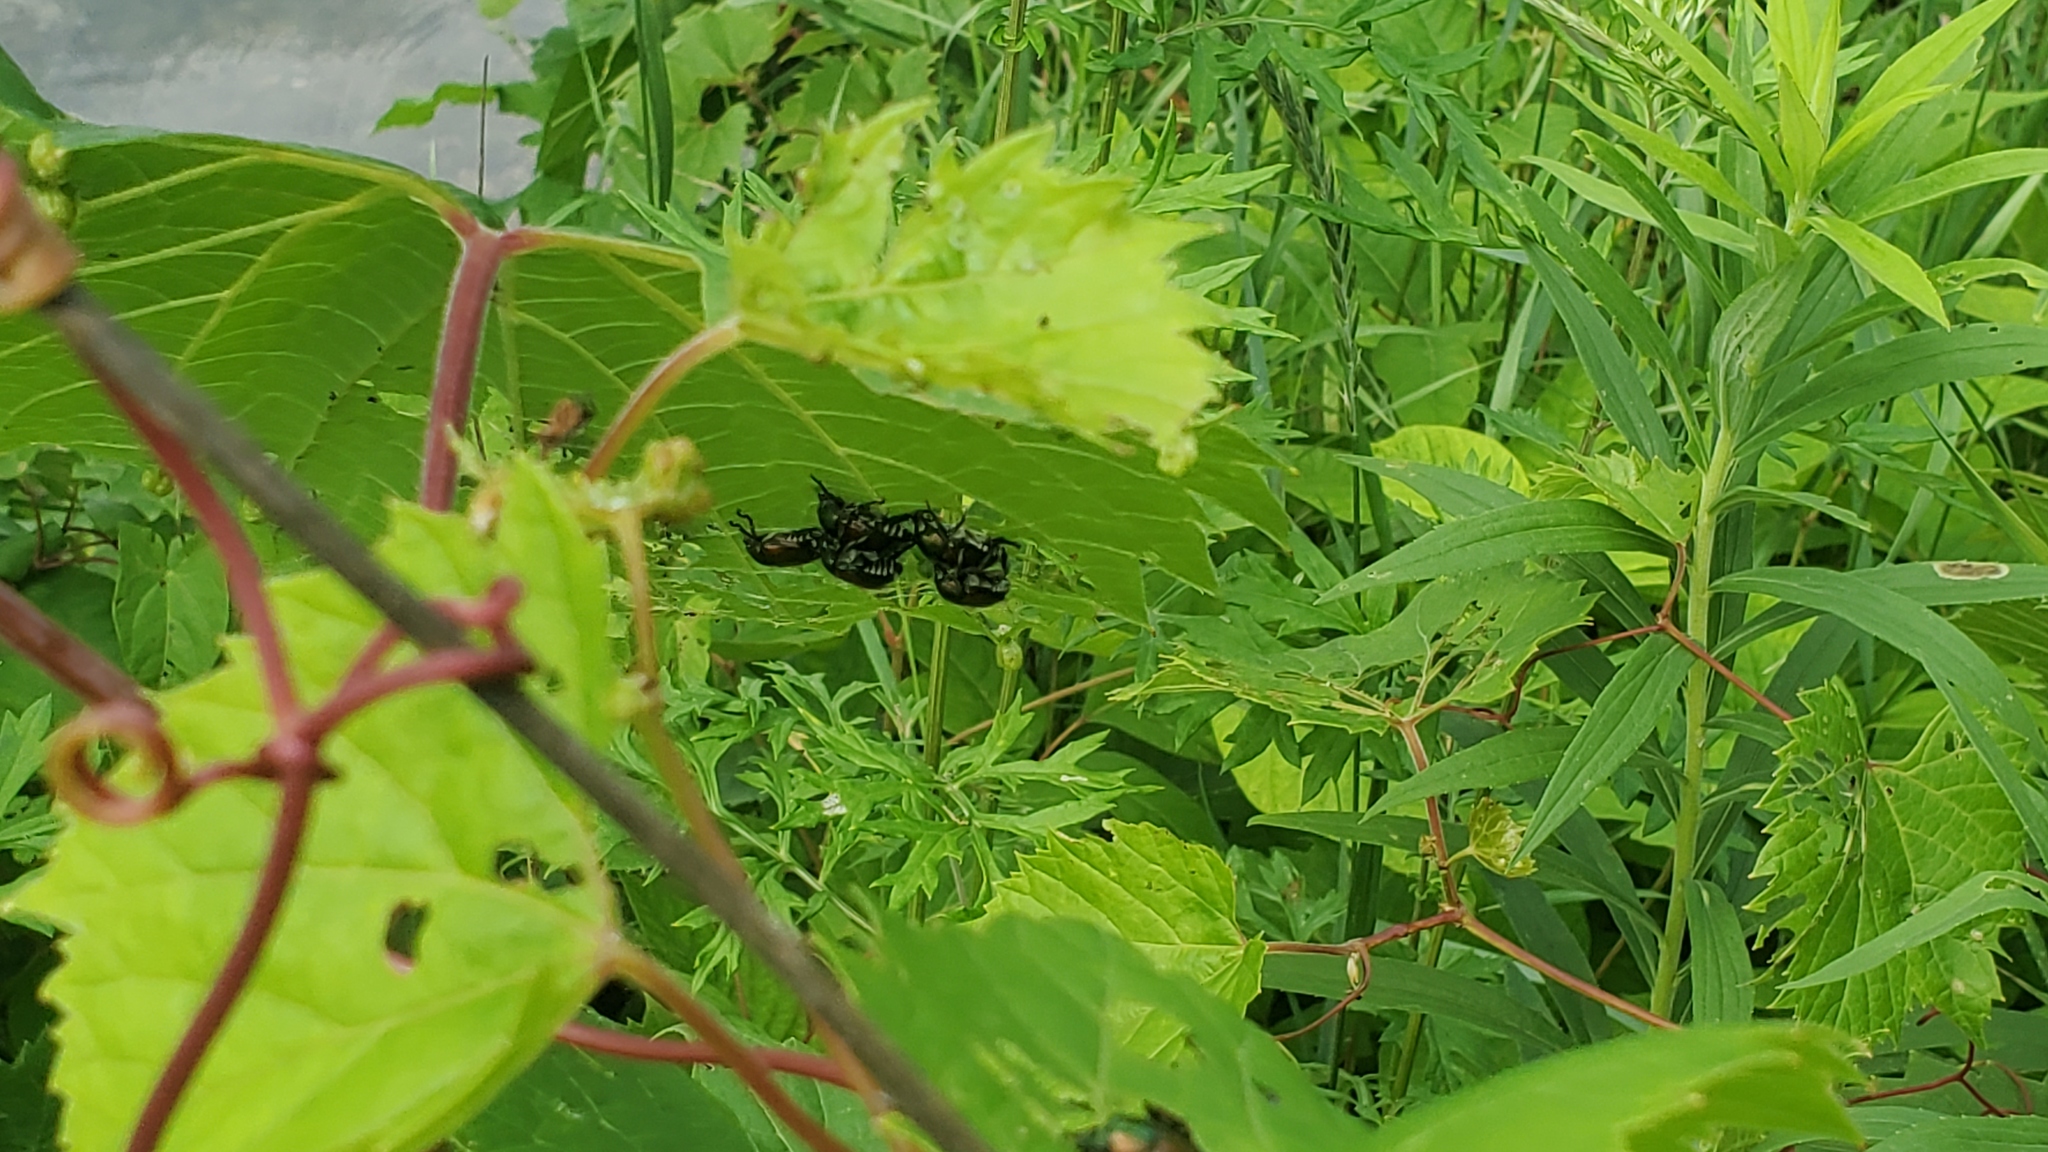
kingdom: Animalia
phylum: Arthropoda
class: Insecta
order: Coleoptera
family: Scarabaeidae
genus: Popillia
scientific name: Popillia japonica
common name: Japanese beetle
